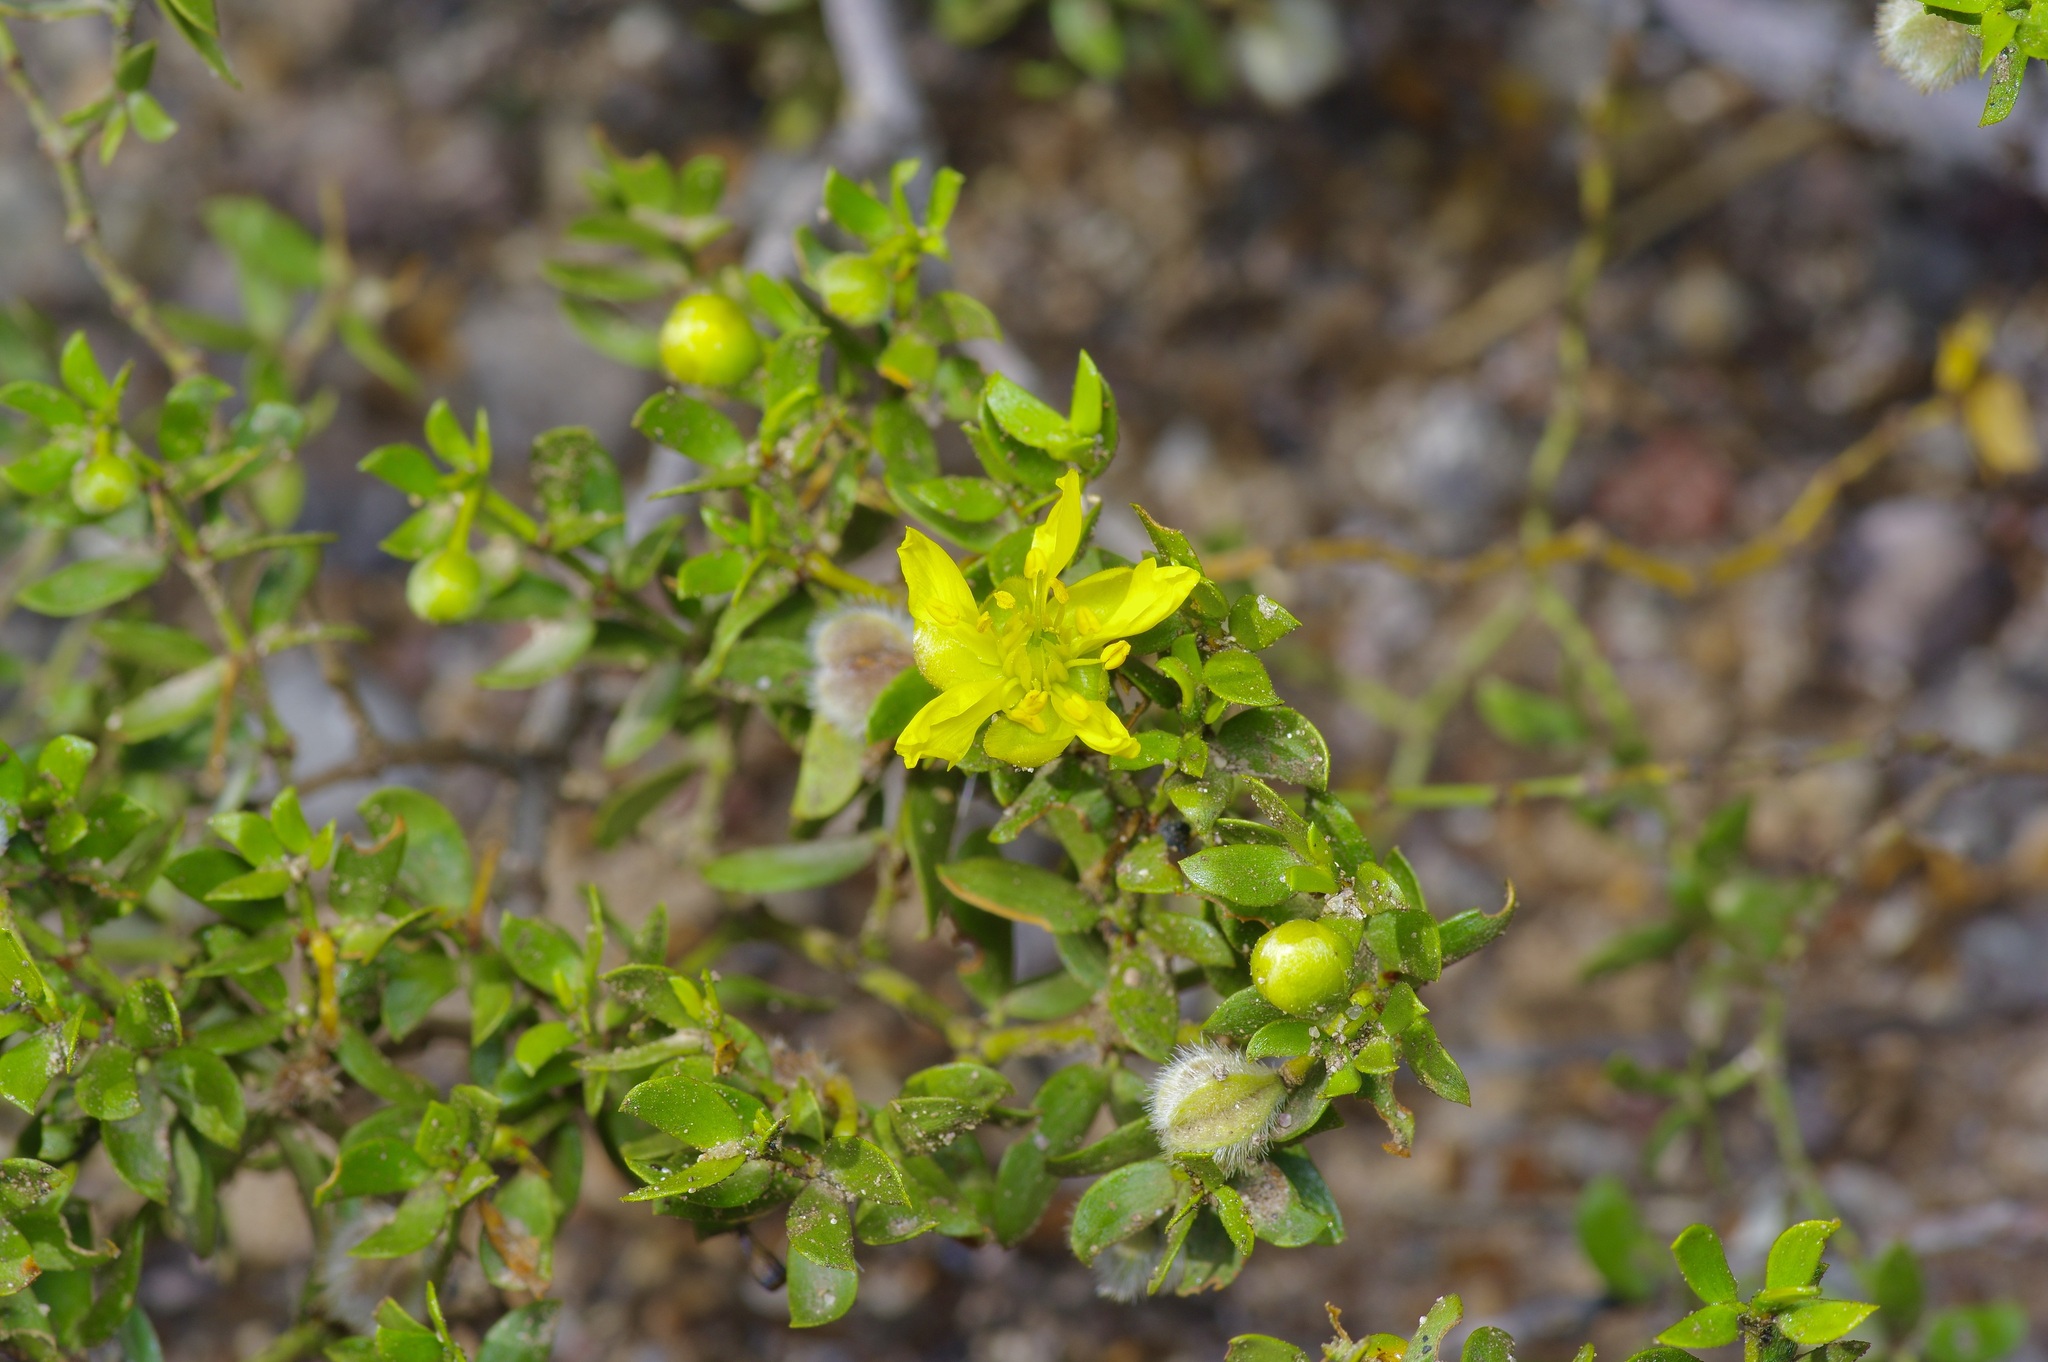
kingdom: Plantae
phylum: Tracheophyta
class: Magnoliopsida
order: Zygophyllales
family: Zygophyllaceae
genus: Larrea
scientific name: Larrea tridentata
